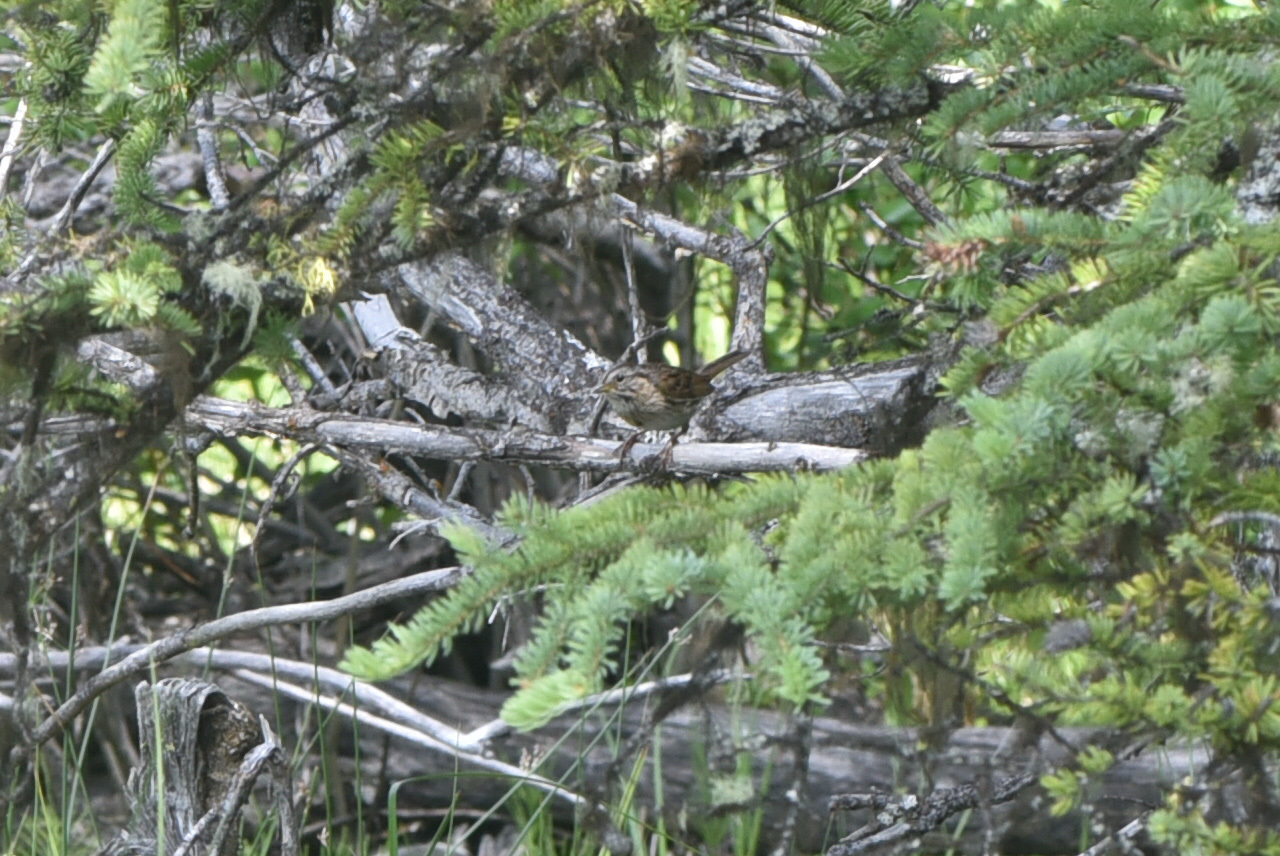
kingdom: Animalia
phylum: Chordata
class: Aves
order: Passeriformes
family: Passerellidae
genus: Melospiza
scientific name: Melospiza melodia
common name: Song sparrow
